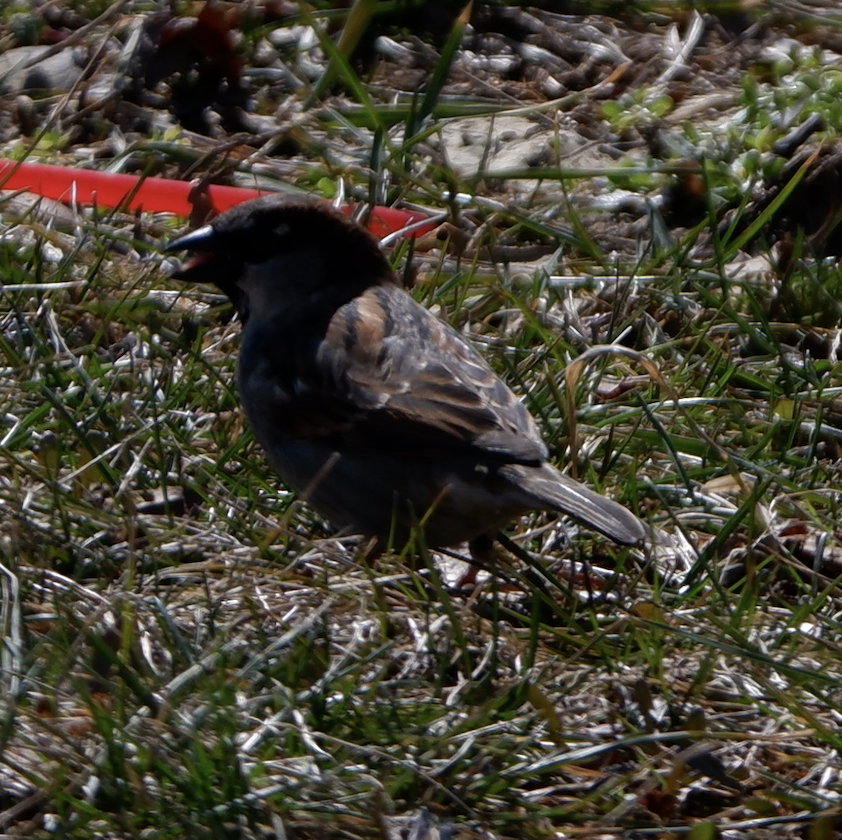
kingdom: Animalia
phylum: Chordata
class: Aves
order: Passeriformes
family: Passeridae
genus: Passer
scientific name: Passer domesticus
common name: House sparrow
